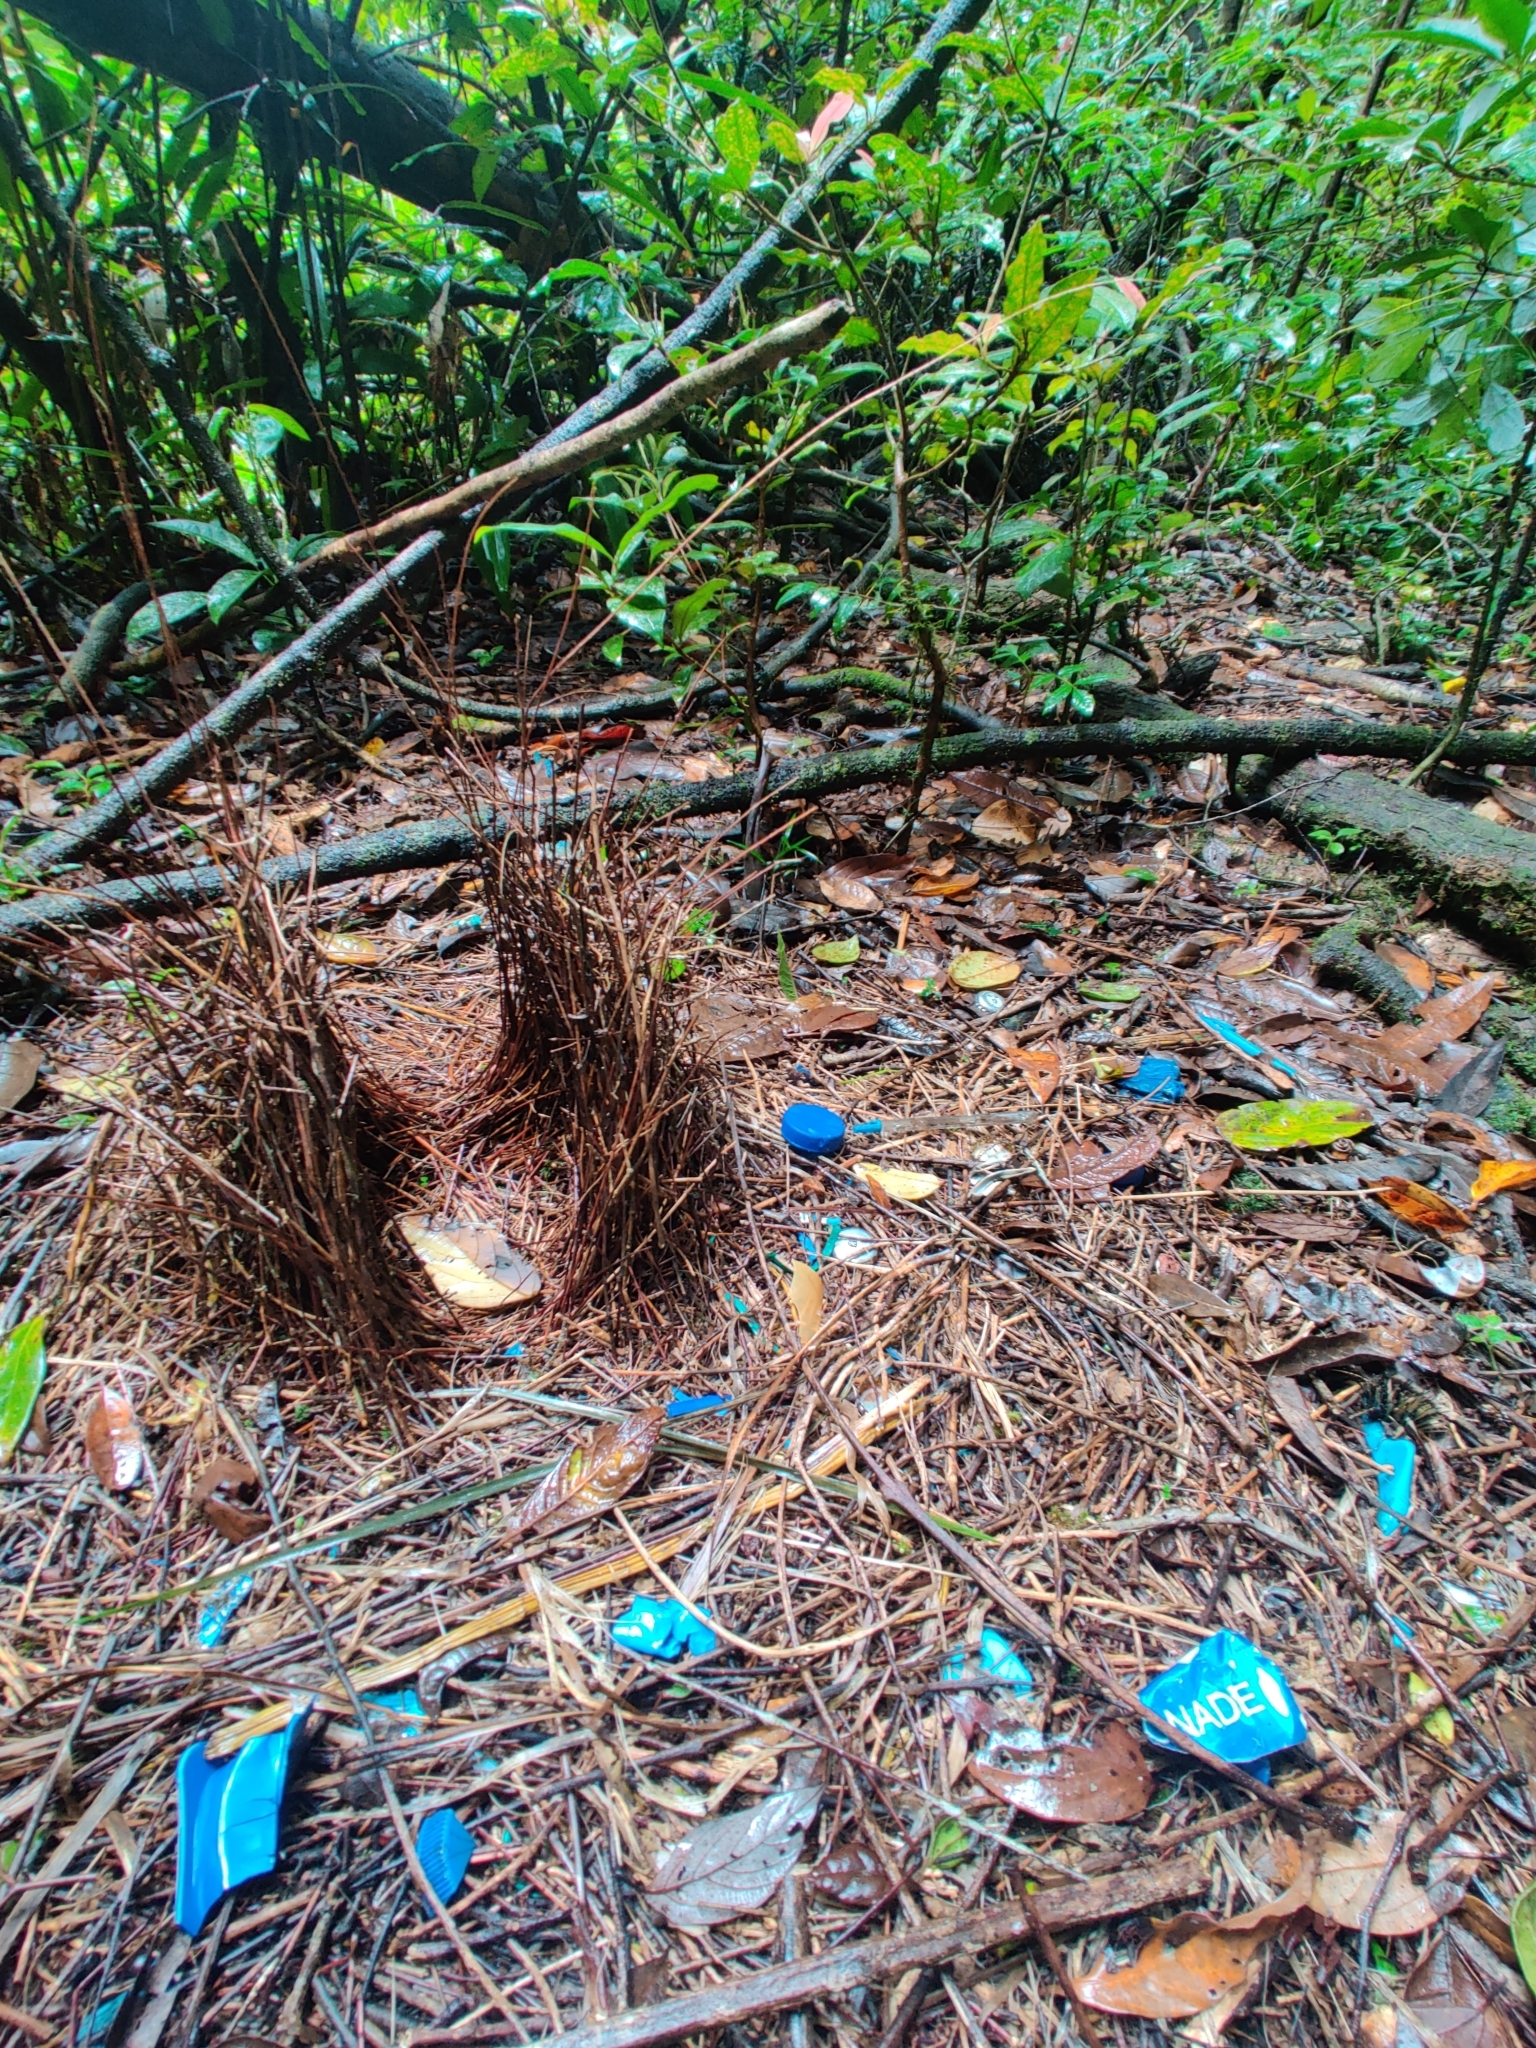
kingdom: Animalia
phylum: Chordata
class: Aves
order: Passeriformes
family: Ptilonorhynchidae
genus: Ptilonorhynchus
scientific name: Ptilonorhynchus violaceus
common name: Satin bowerbird
